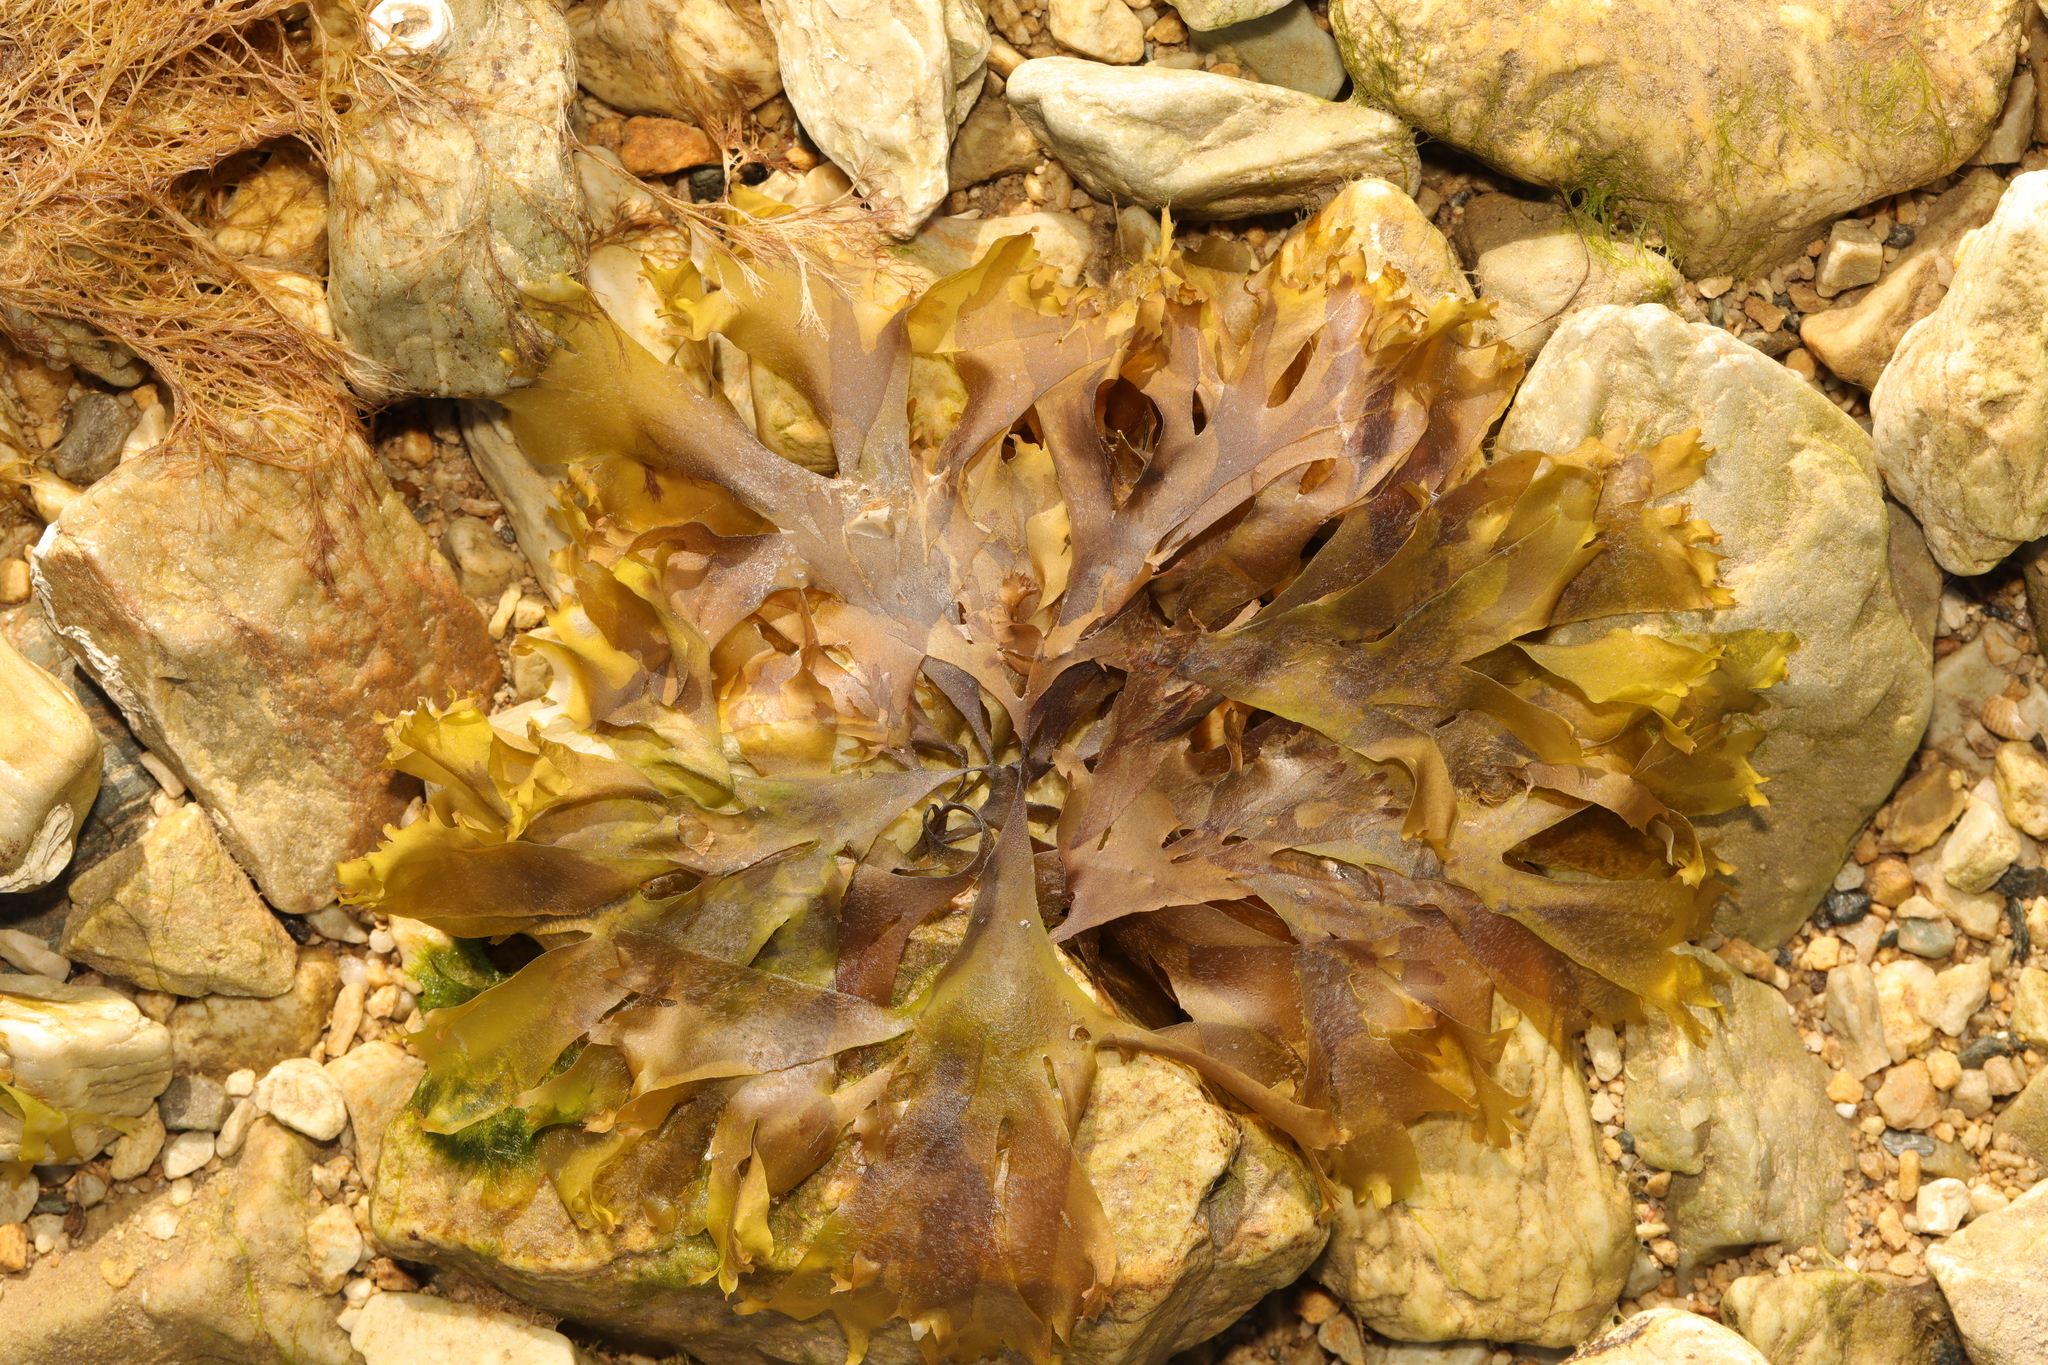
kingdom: Plantae
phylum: Rhodophyta
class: Florideophyceae
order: Palmariales
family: Palmariaceae
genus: Palmaria
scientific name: Palmaria palmata
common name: Dulse
